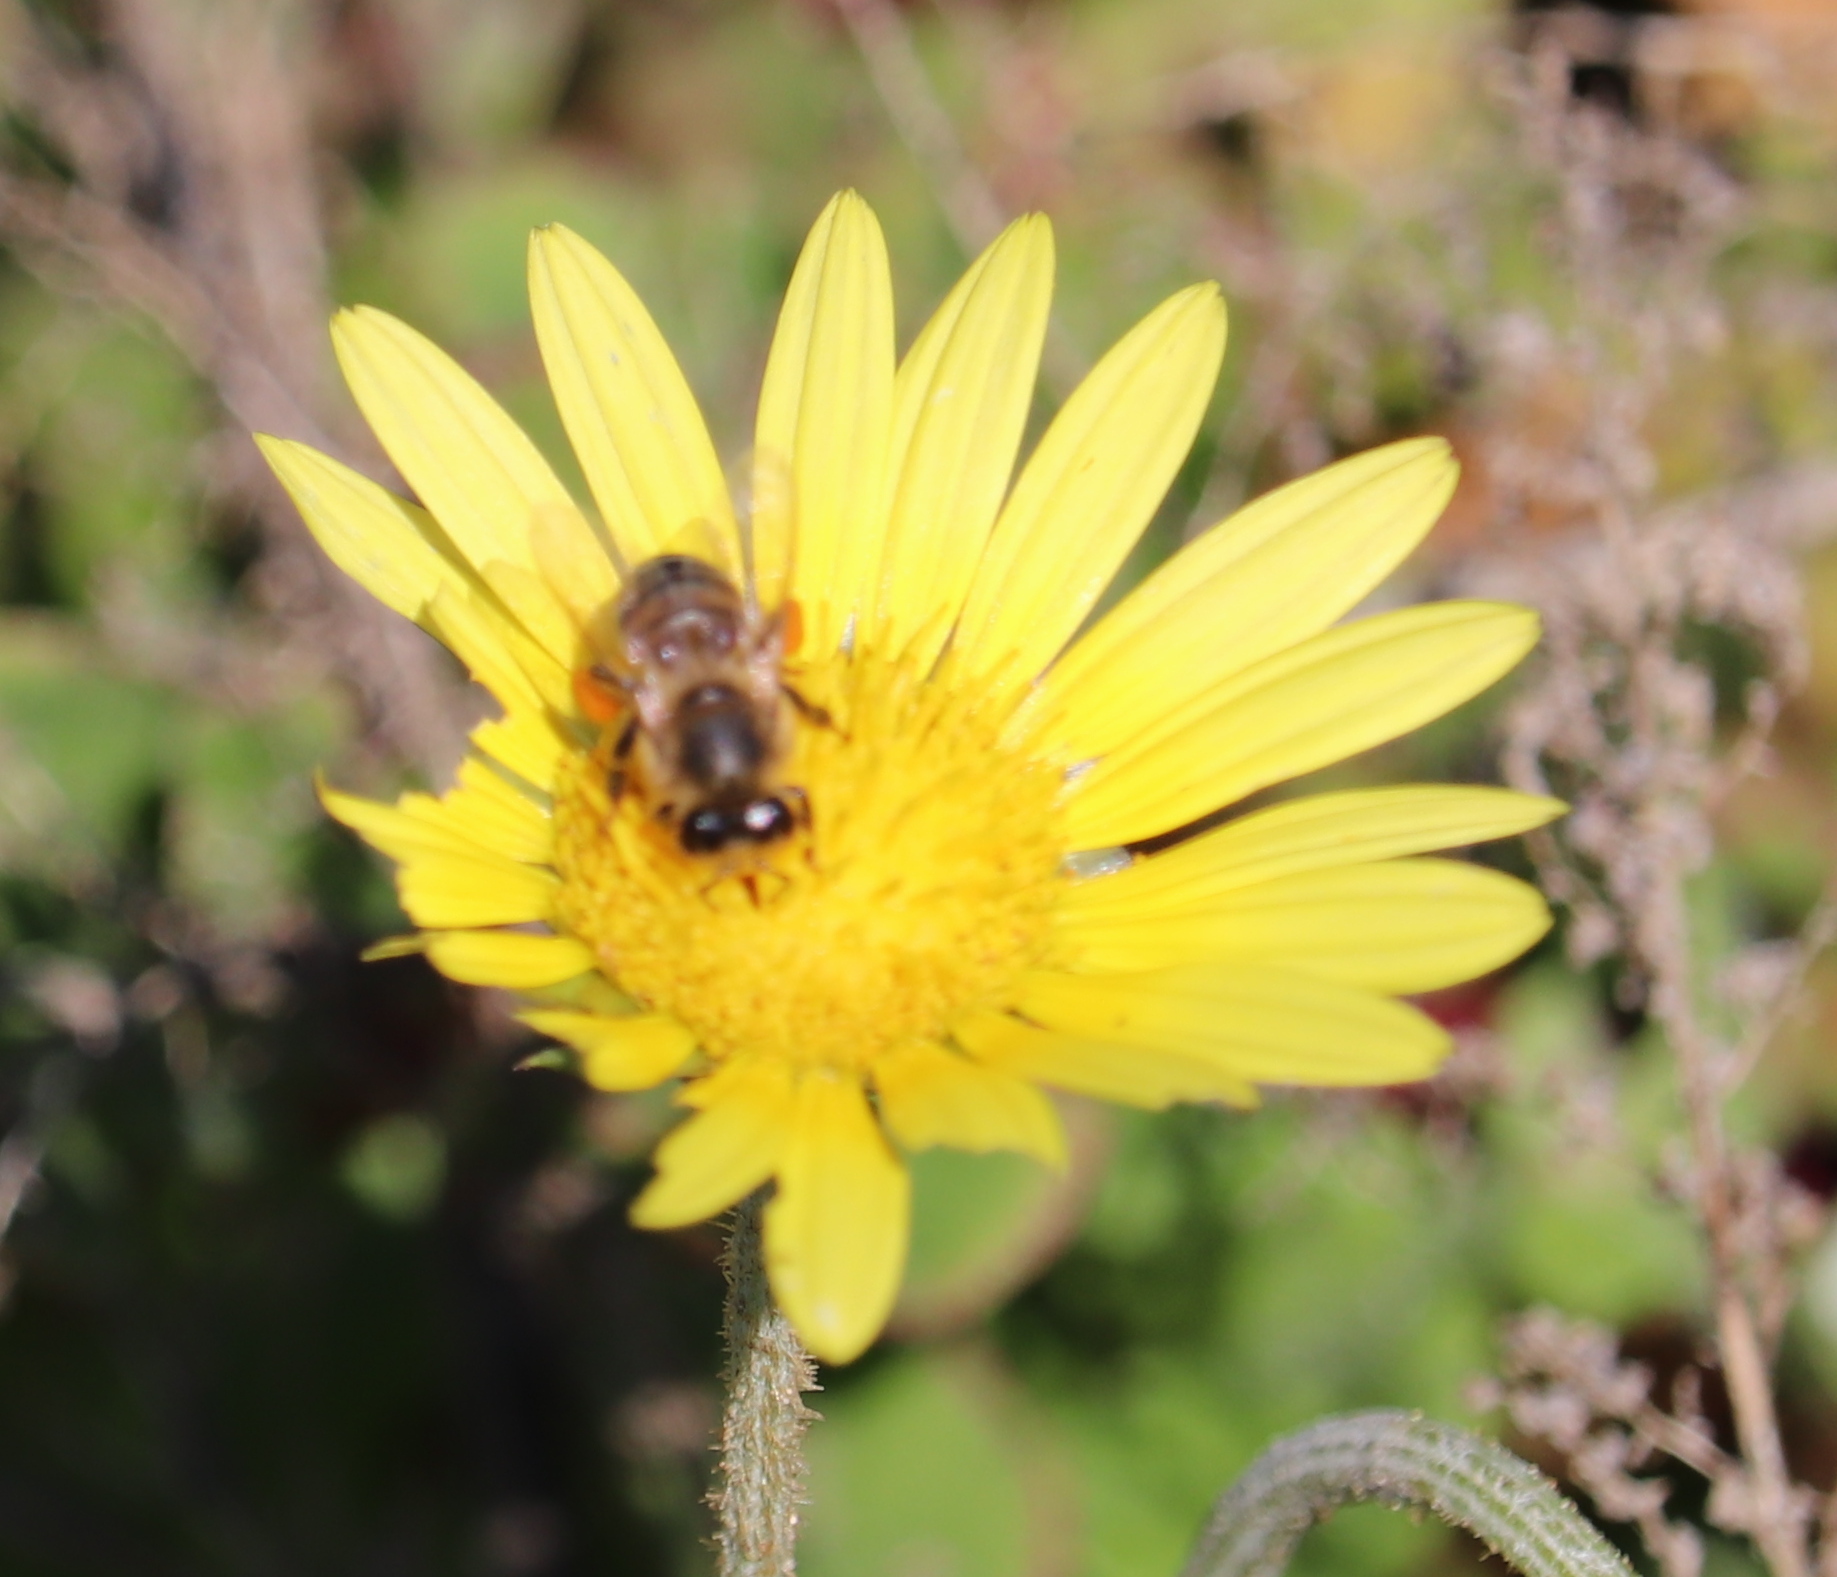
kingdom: Animalia
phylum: Arthropoda
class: Insecta
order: Hymenoptera
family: Apidae
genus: Apis
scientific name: Apis mellifera
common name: Honey bee
